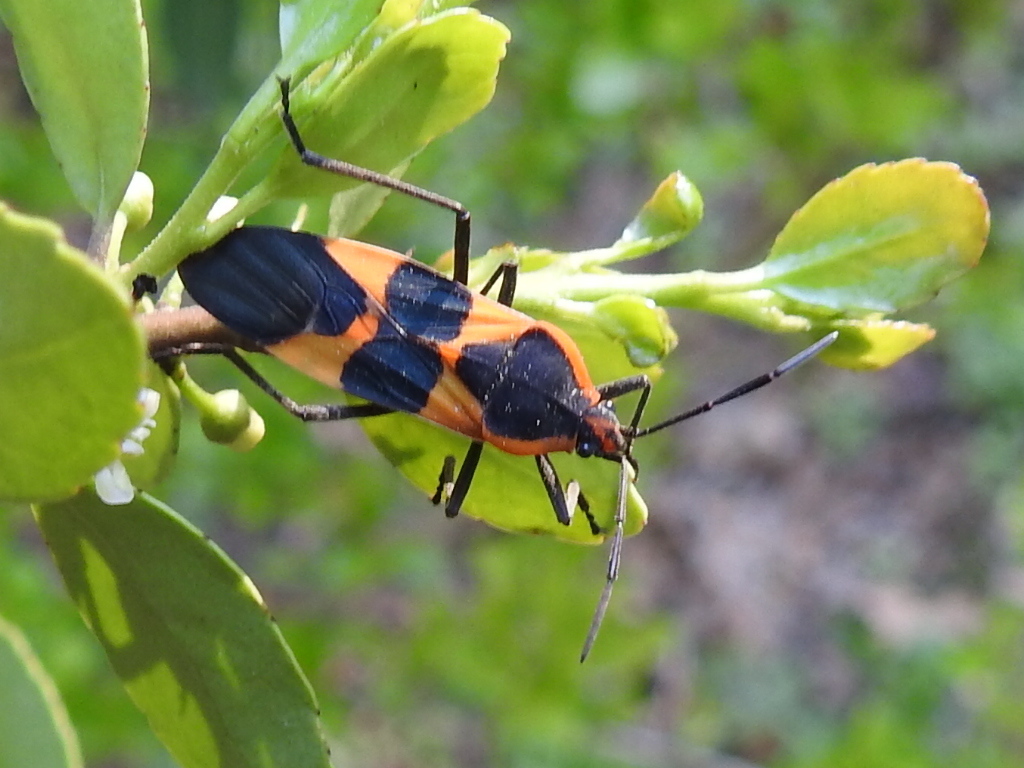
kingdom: Animalia
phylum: Arthropoda
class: Insecta
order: Hemiptera
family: Lygaeidae
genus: Oncopeltus
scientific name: Oncopeltus fasciatus
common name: Large milkweed bug
